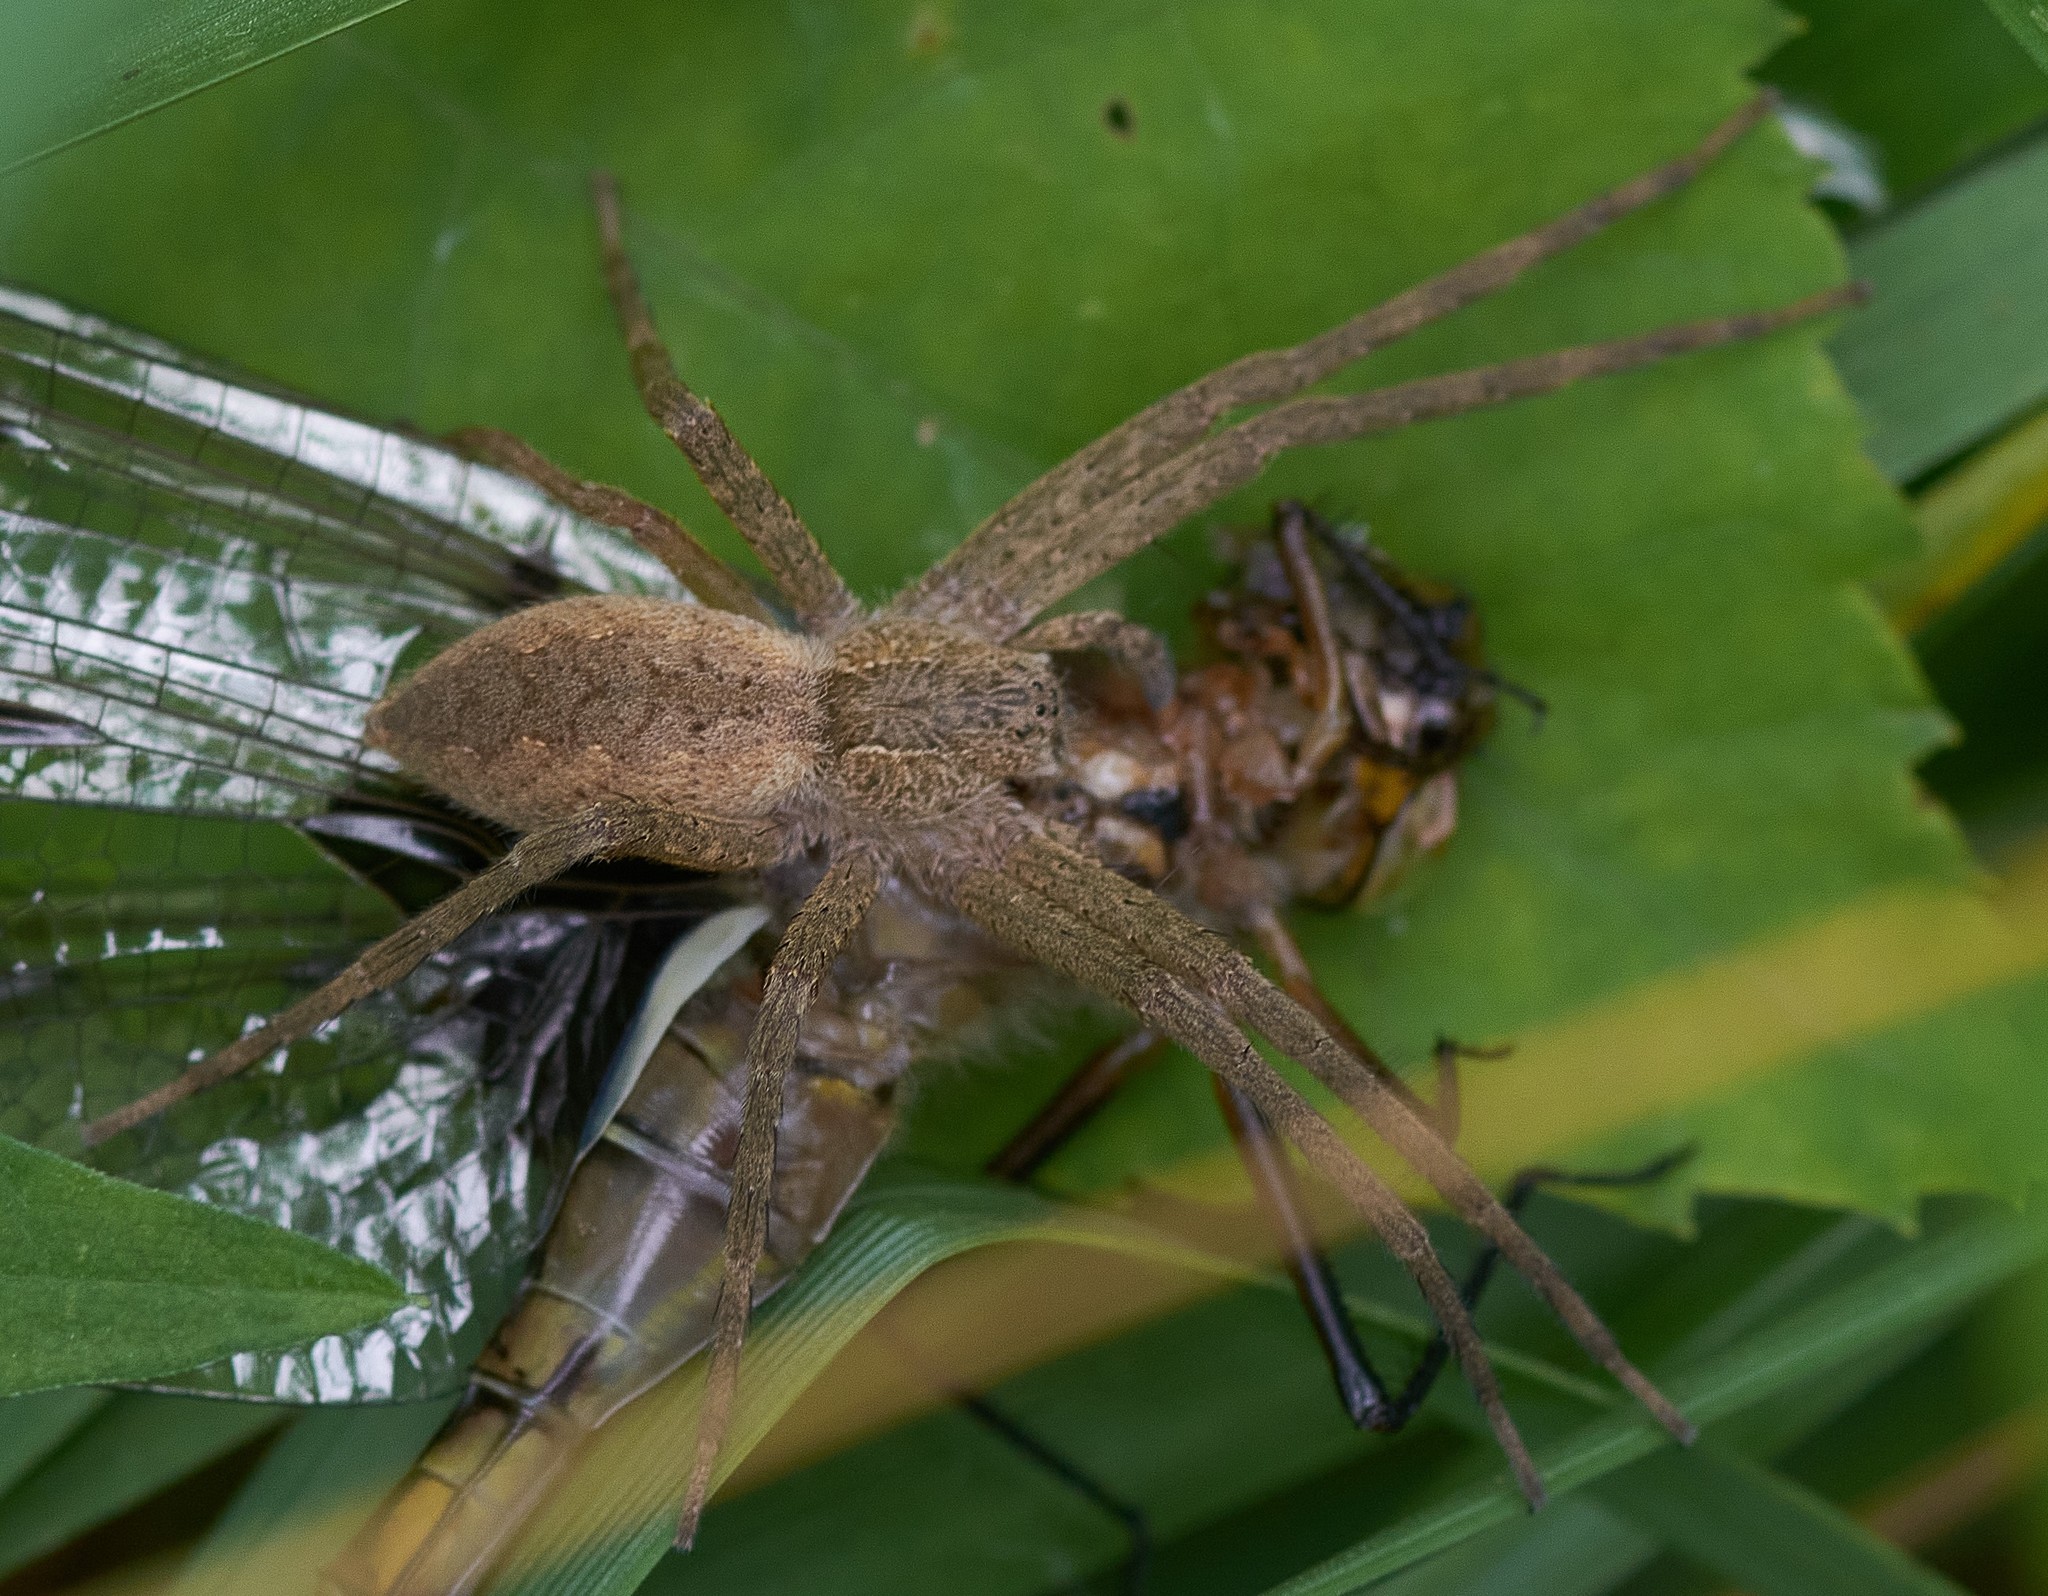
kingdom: Animalia
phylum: Arthropoda
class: Arachnida
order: Araneae
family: Pisauridae
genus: Pisaurina
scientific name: Pisaurina mira
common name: American nursery web spider
